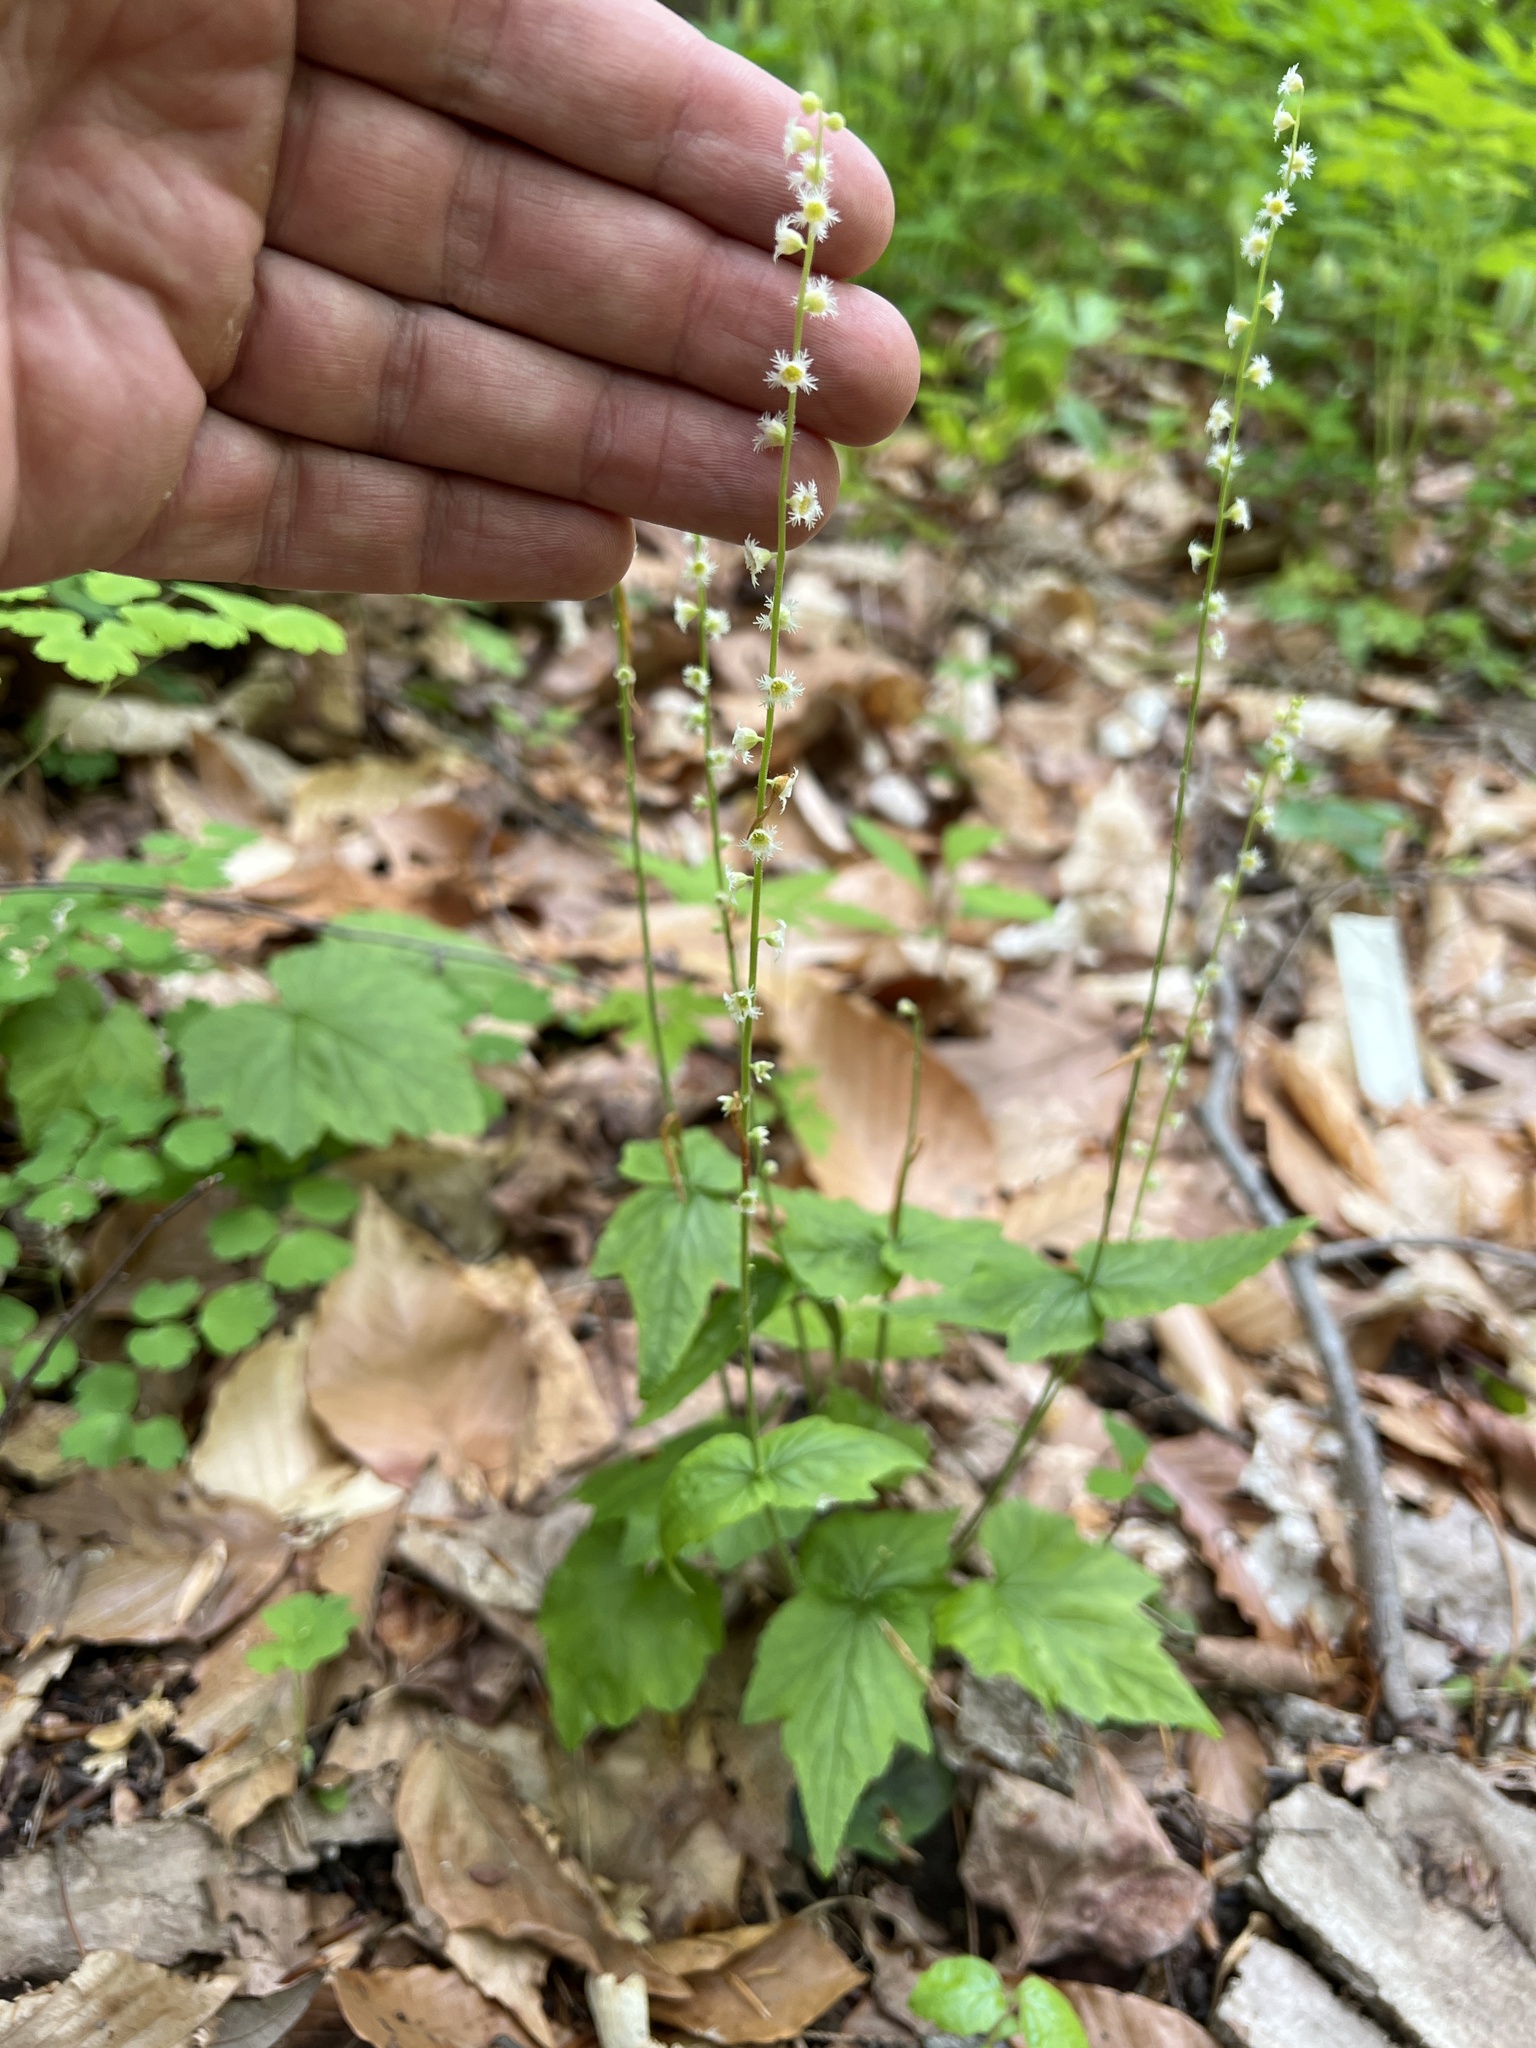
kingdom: Plantae
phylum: Tracheophyta
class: Magnoliopsida
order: Saxifragales
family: Saxifragaceae
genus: Mitella
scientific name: Mitella diphylla
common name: Coolwort
